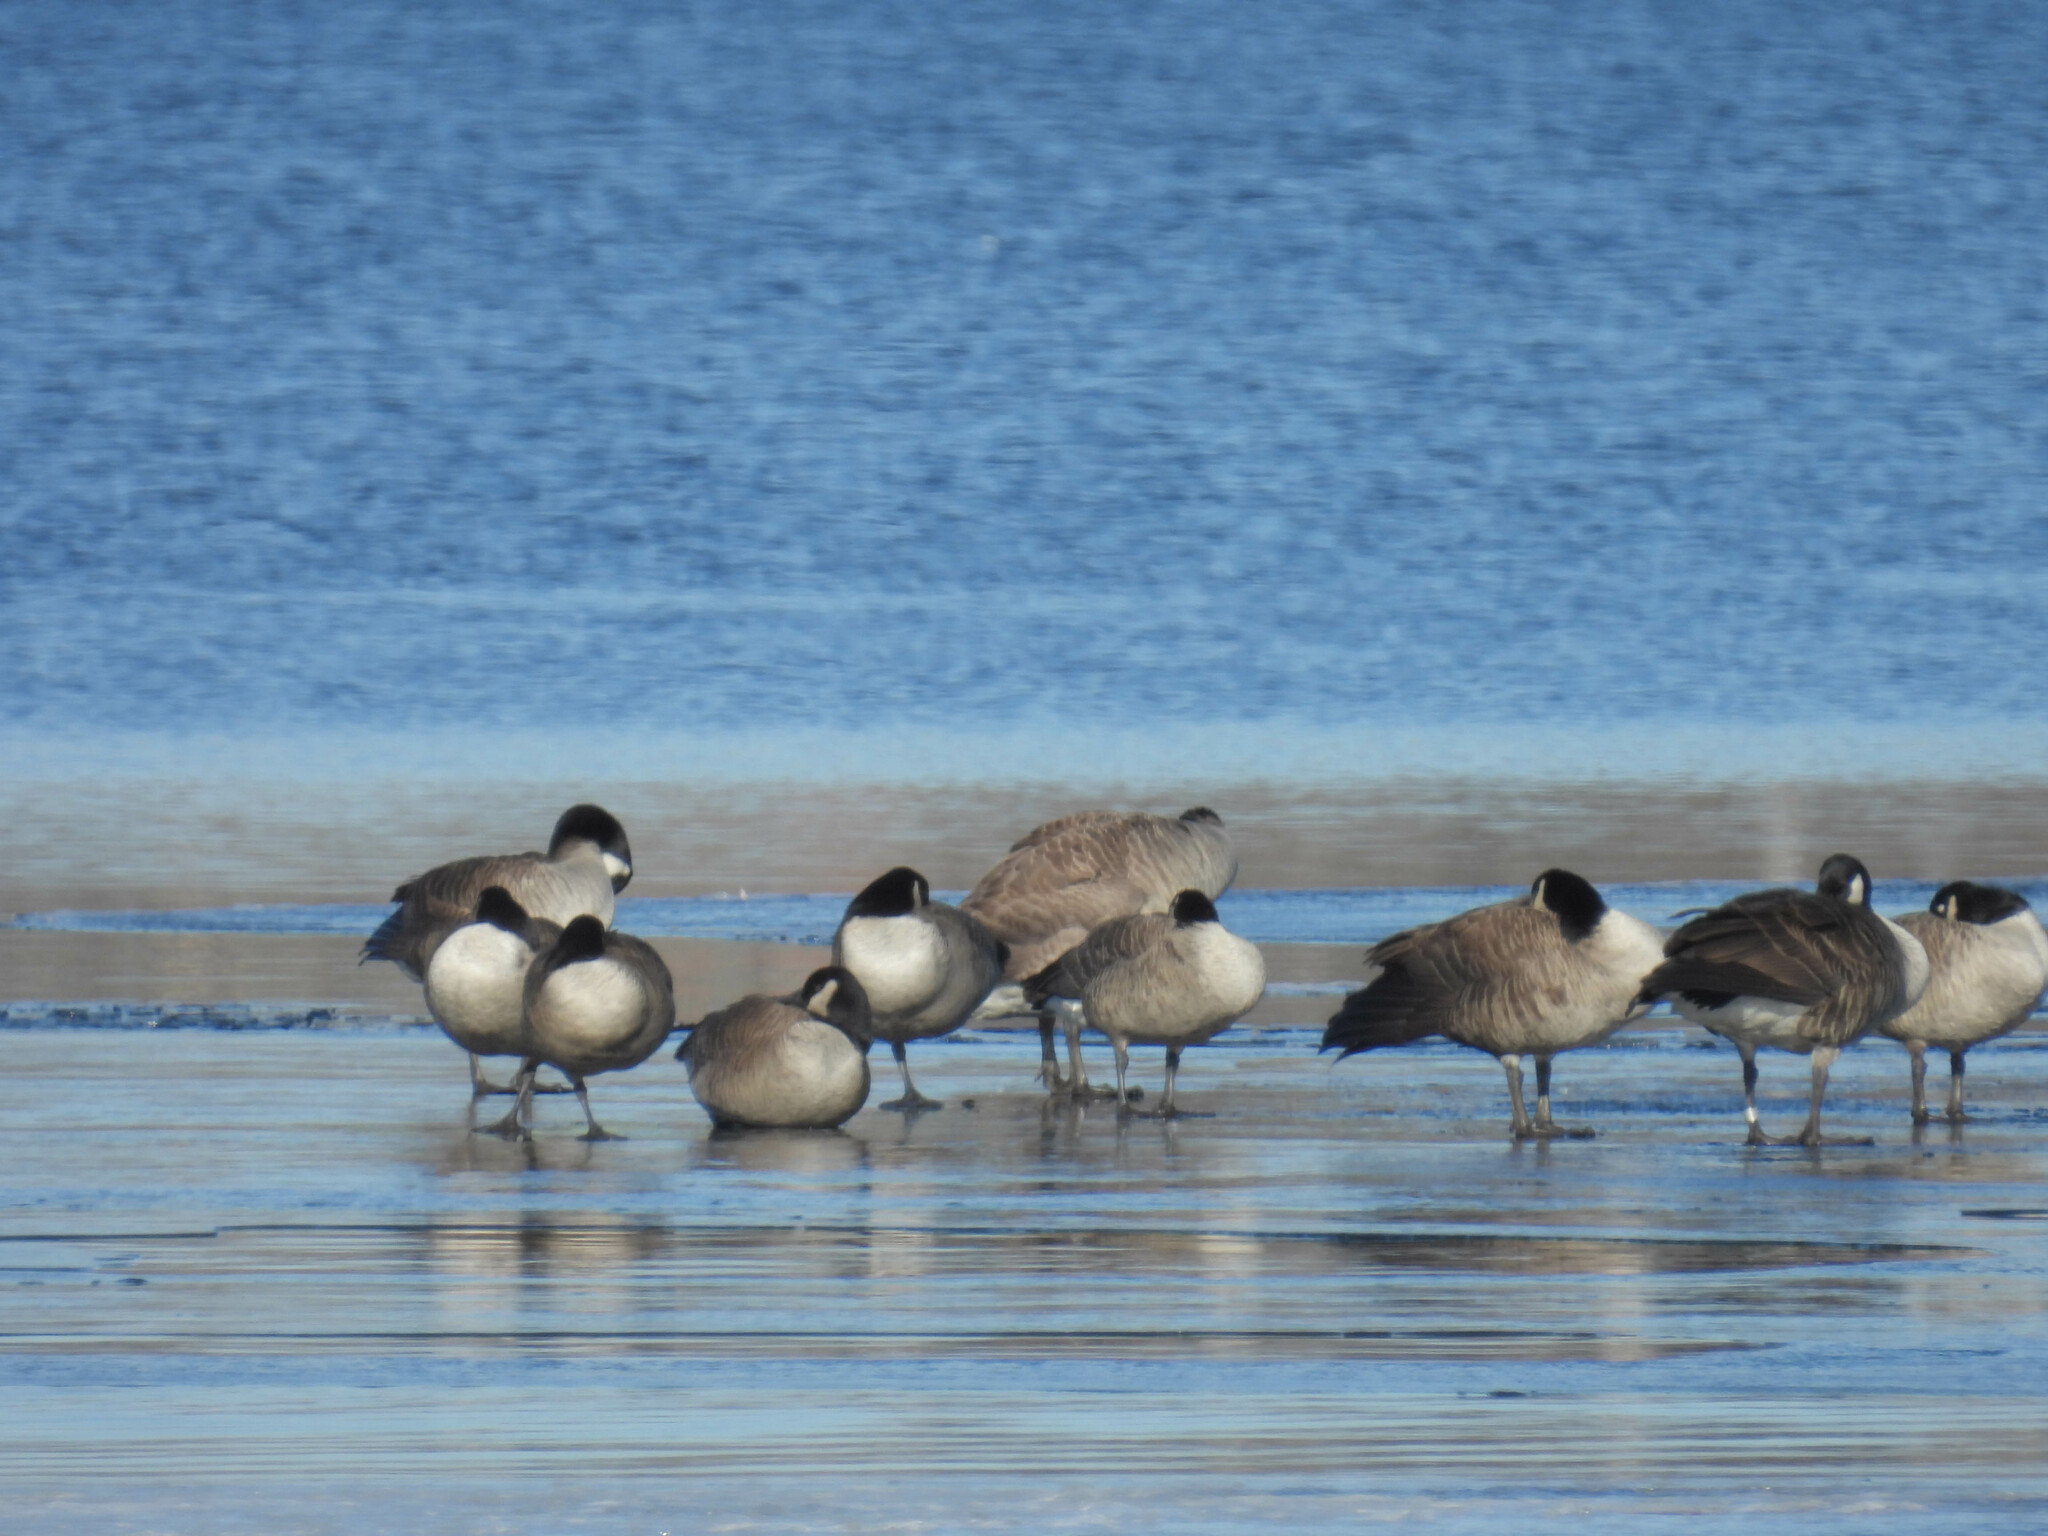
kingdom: Animalia
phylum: Chordata
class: Aves
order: Anseriformes
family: Anatidae
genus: Branta
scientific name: Branta canadensis
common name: Canada goose
